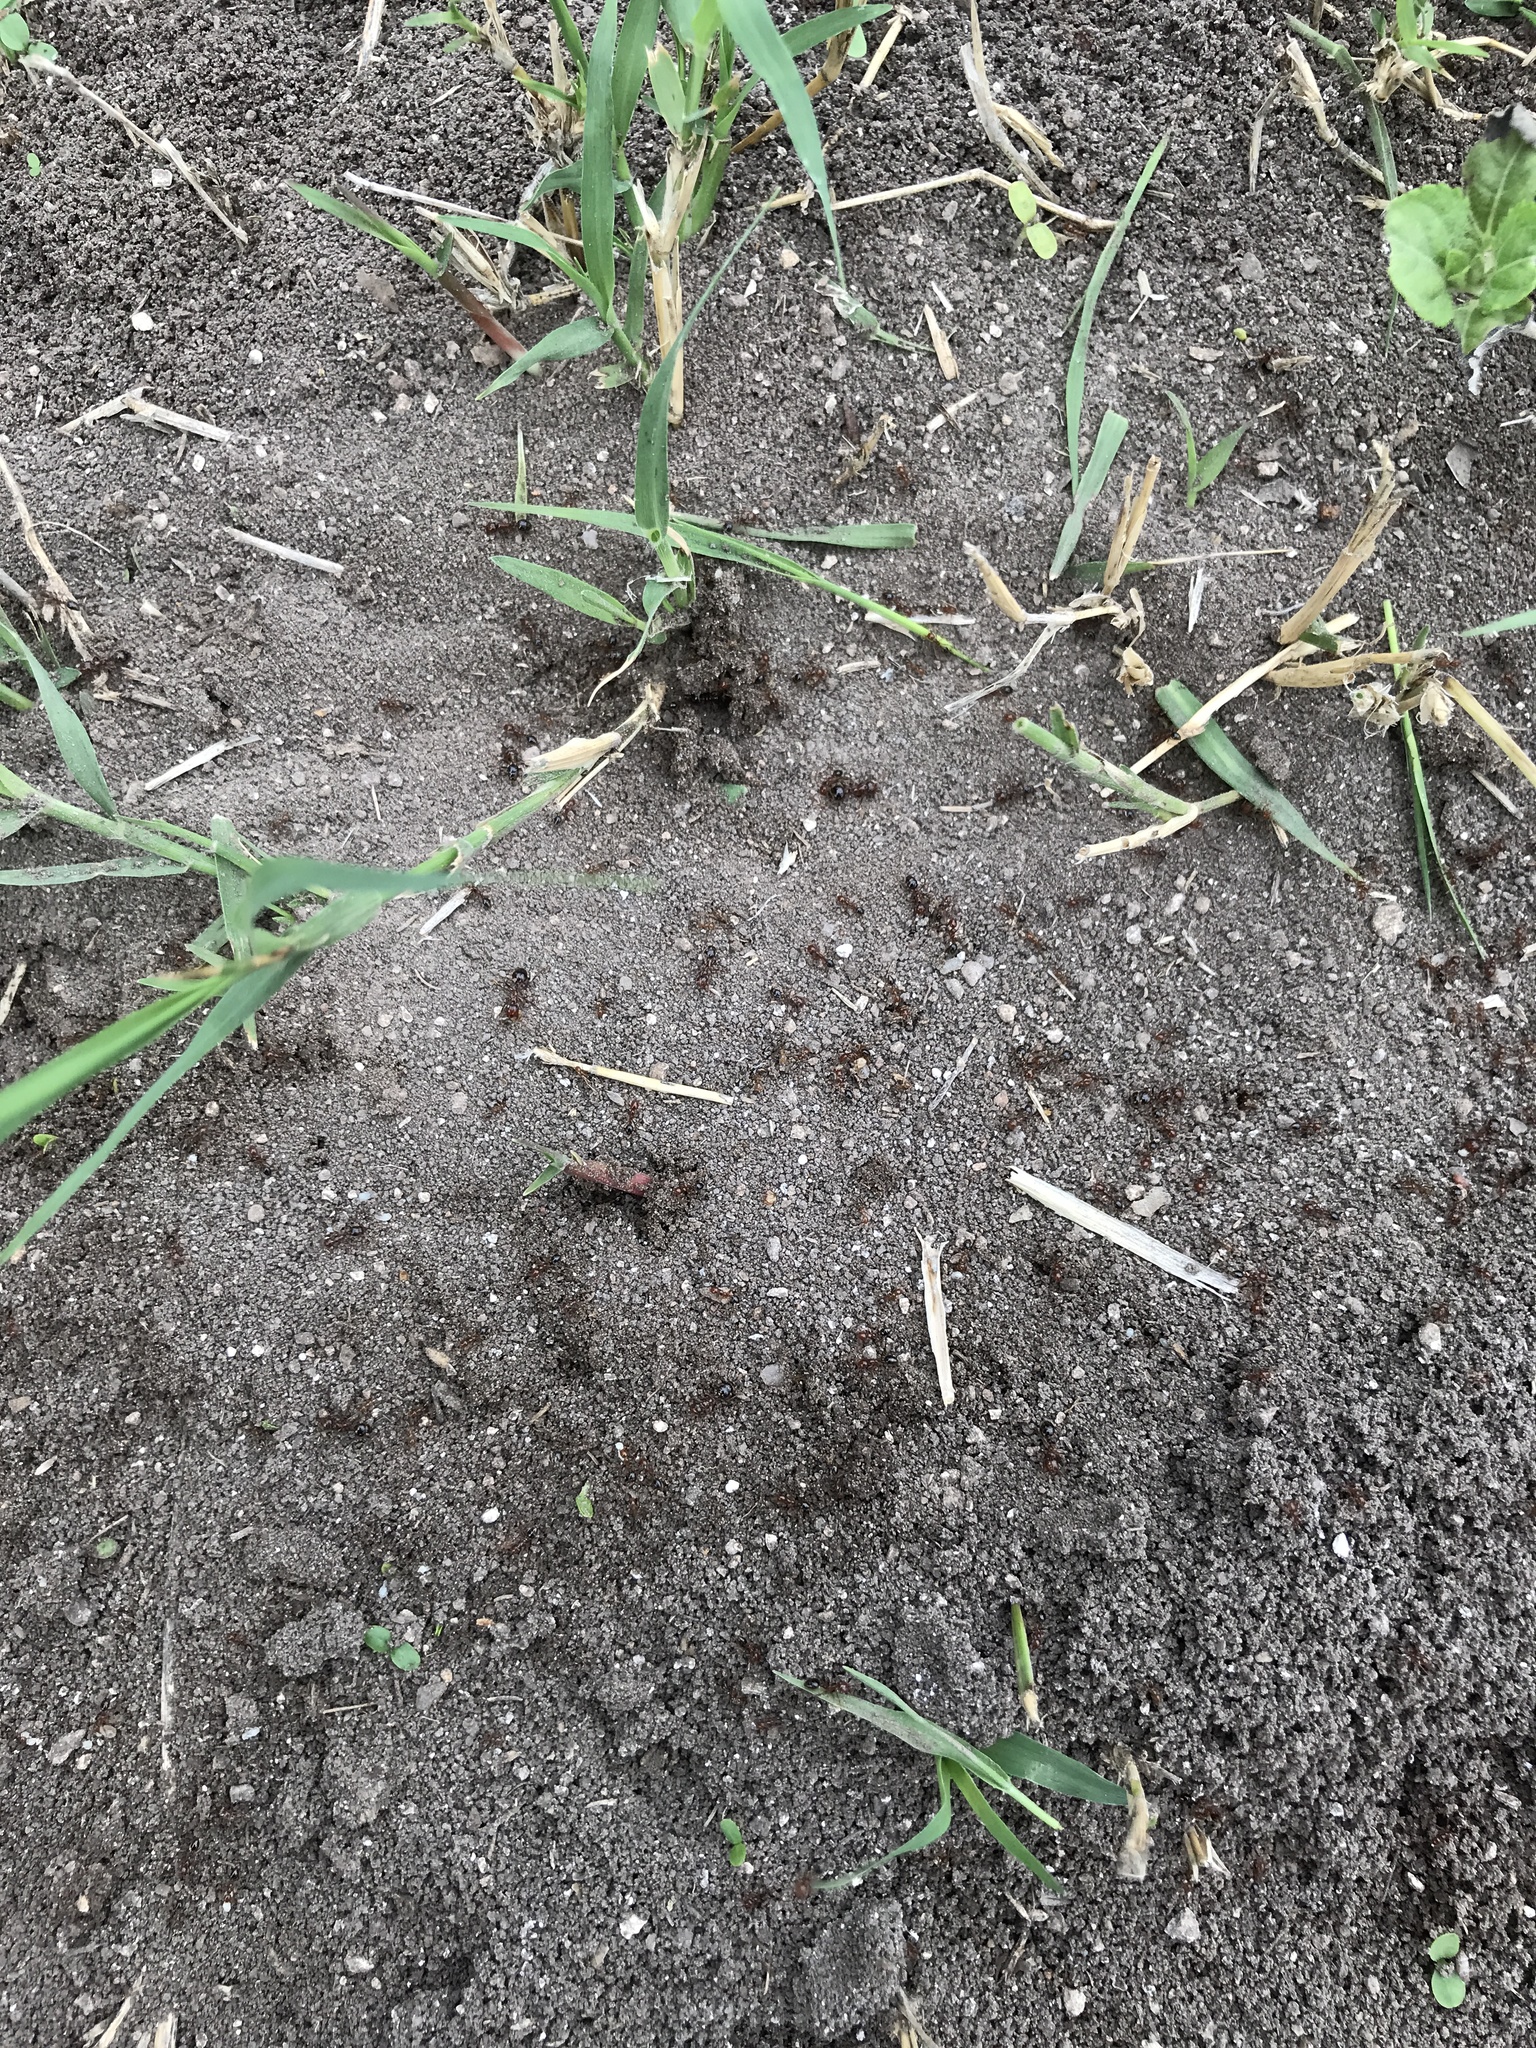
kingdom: Animalia
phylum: Arthropoda
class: Insecta
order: Hymenoptera
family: Formicidae
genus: Solenopsis
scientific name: Solenopsis invicta
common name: Red imported fire ant
